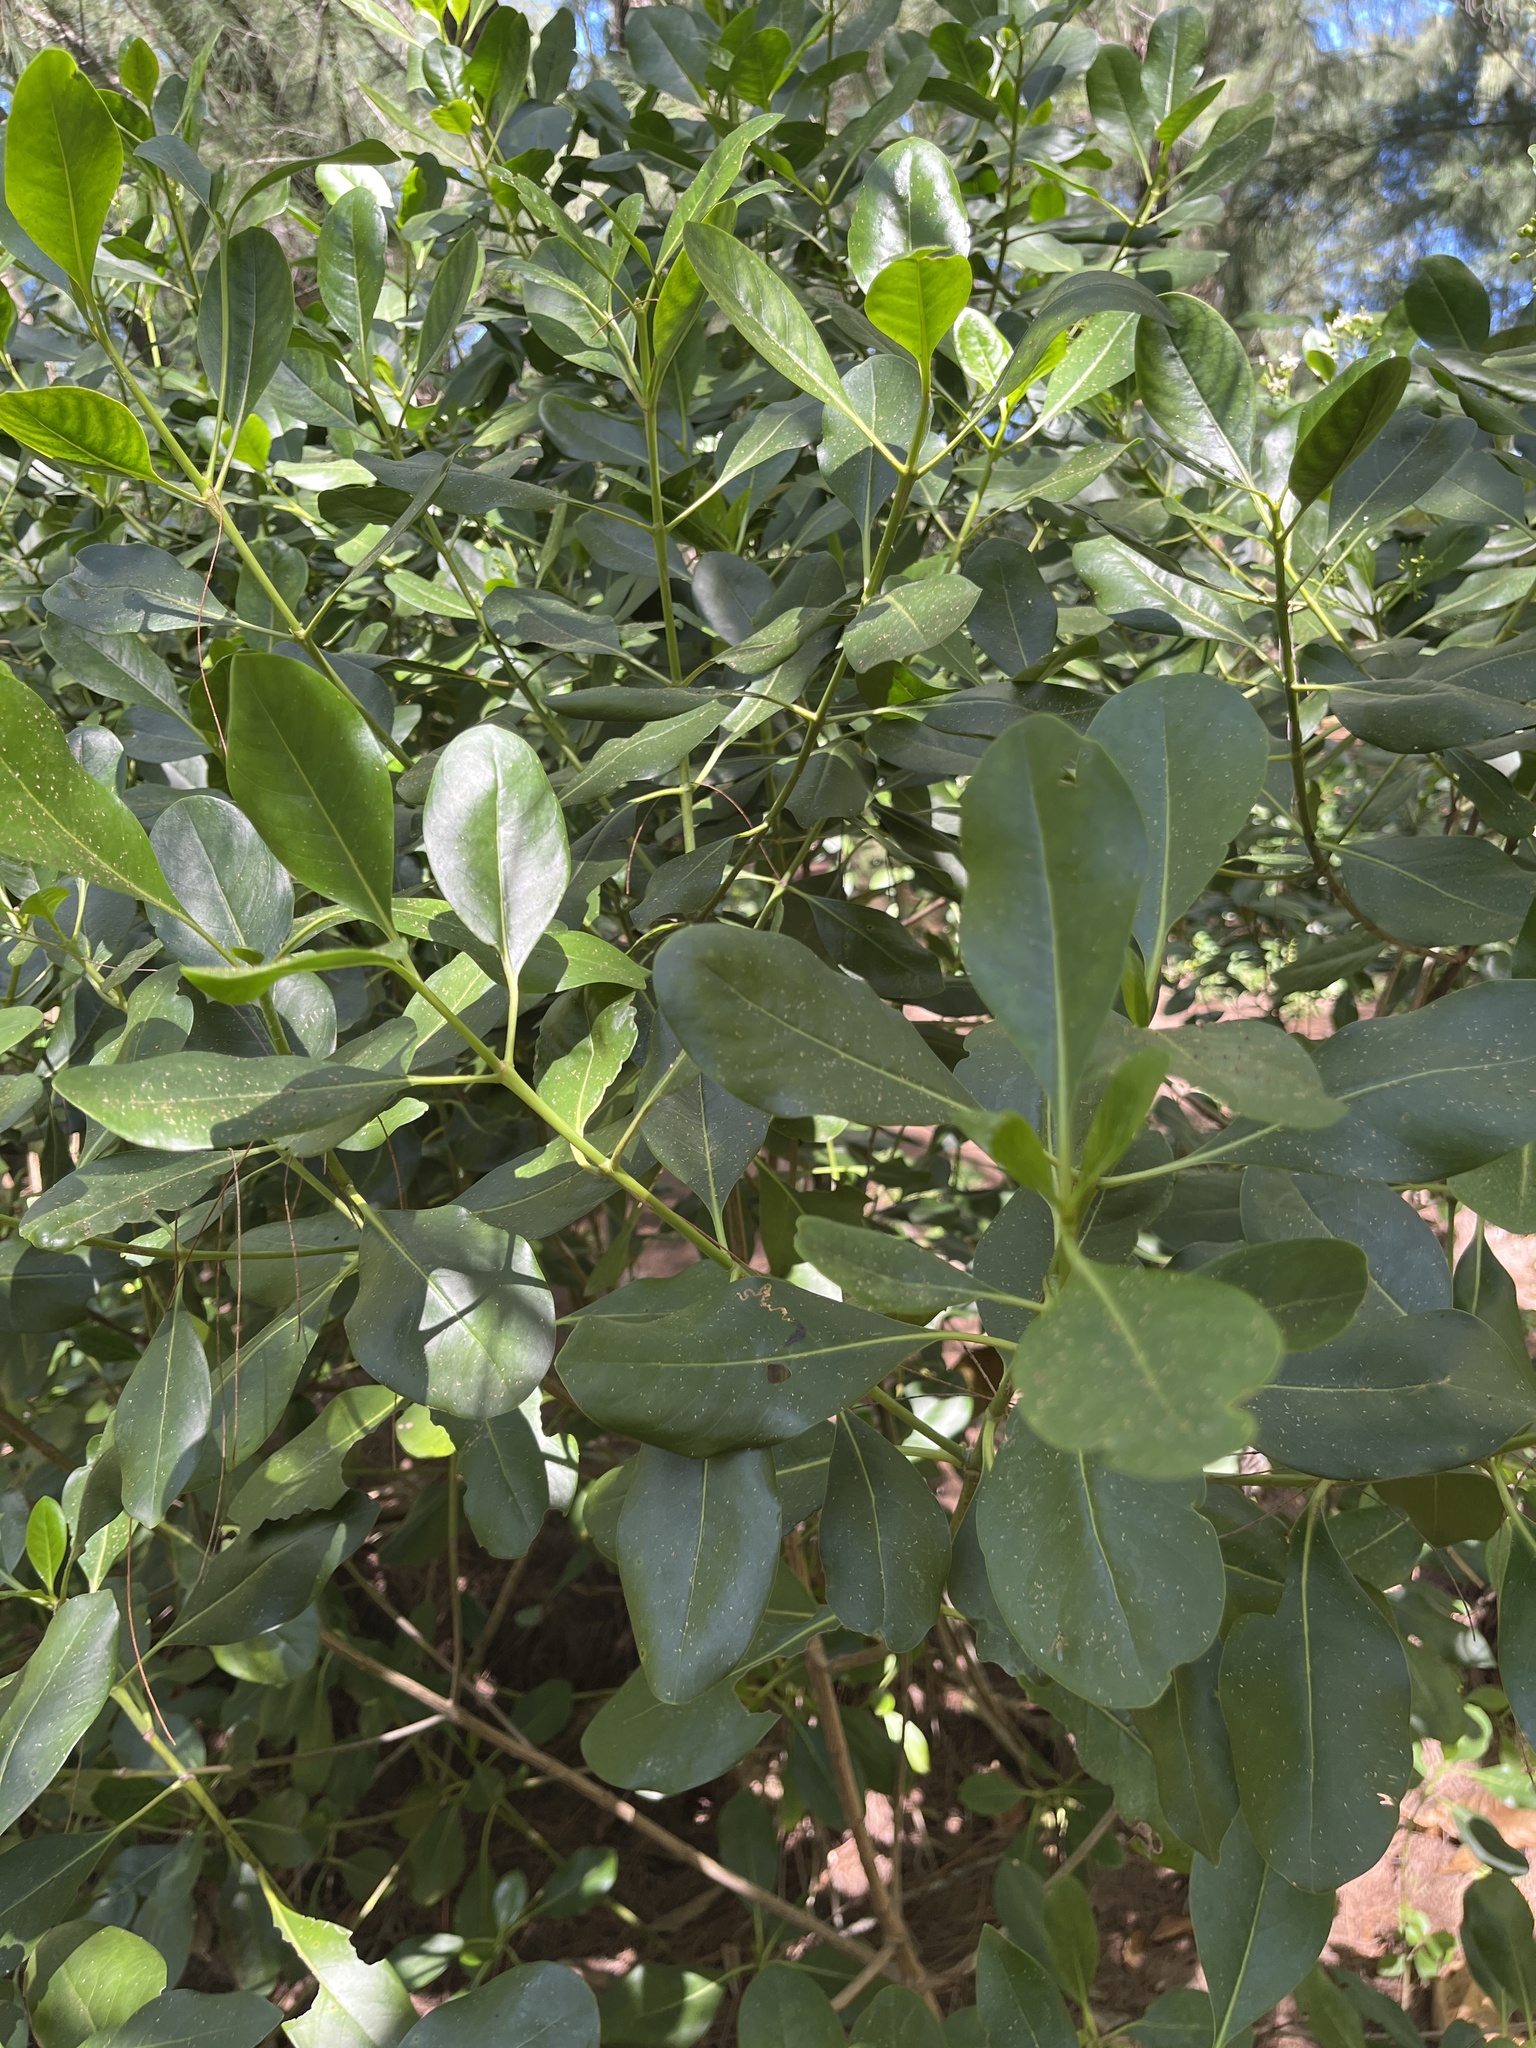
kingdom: Plantae
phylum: Tracheophyta
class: Magnoliopsida
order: Gentianales
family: Rubiaceae
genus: Erithalis
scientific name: Erithalis fruticosa
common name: Candlewood
